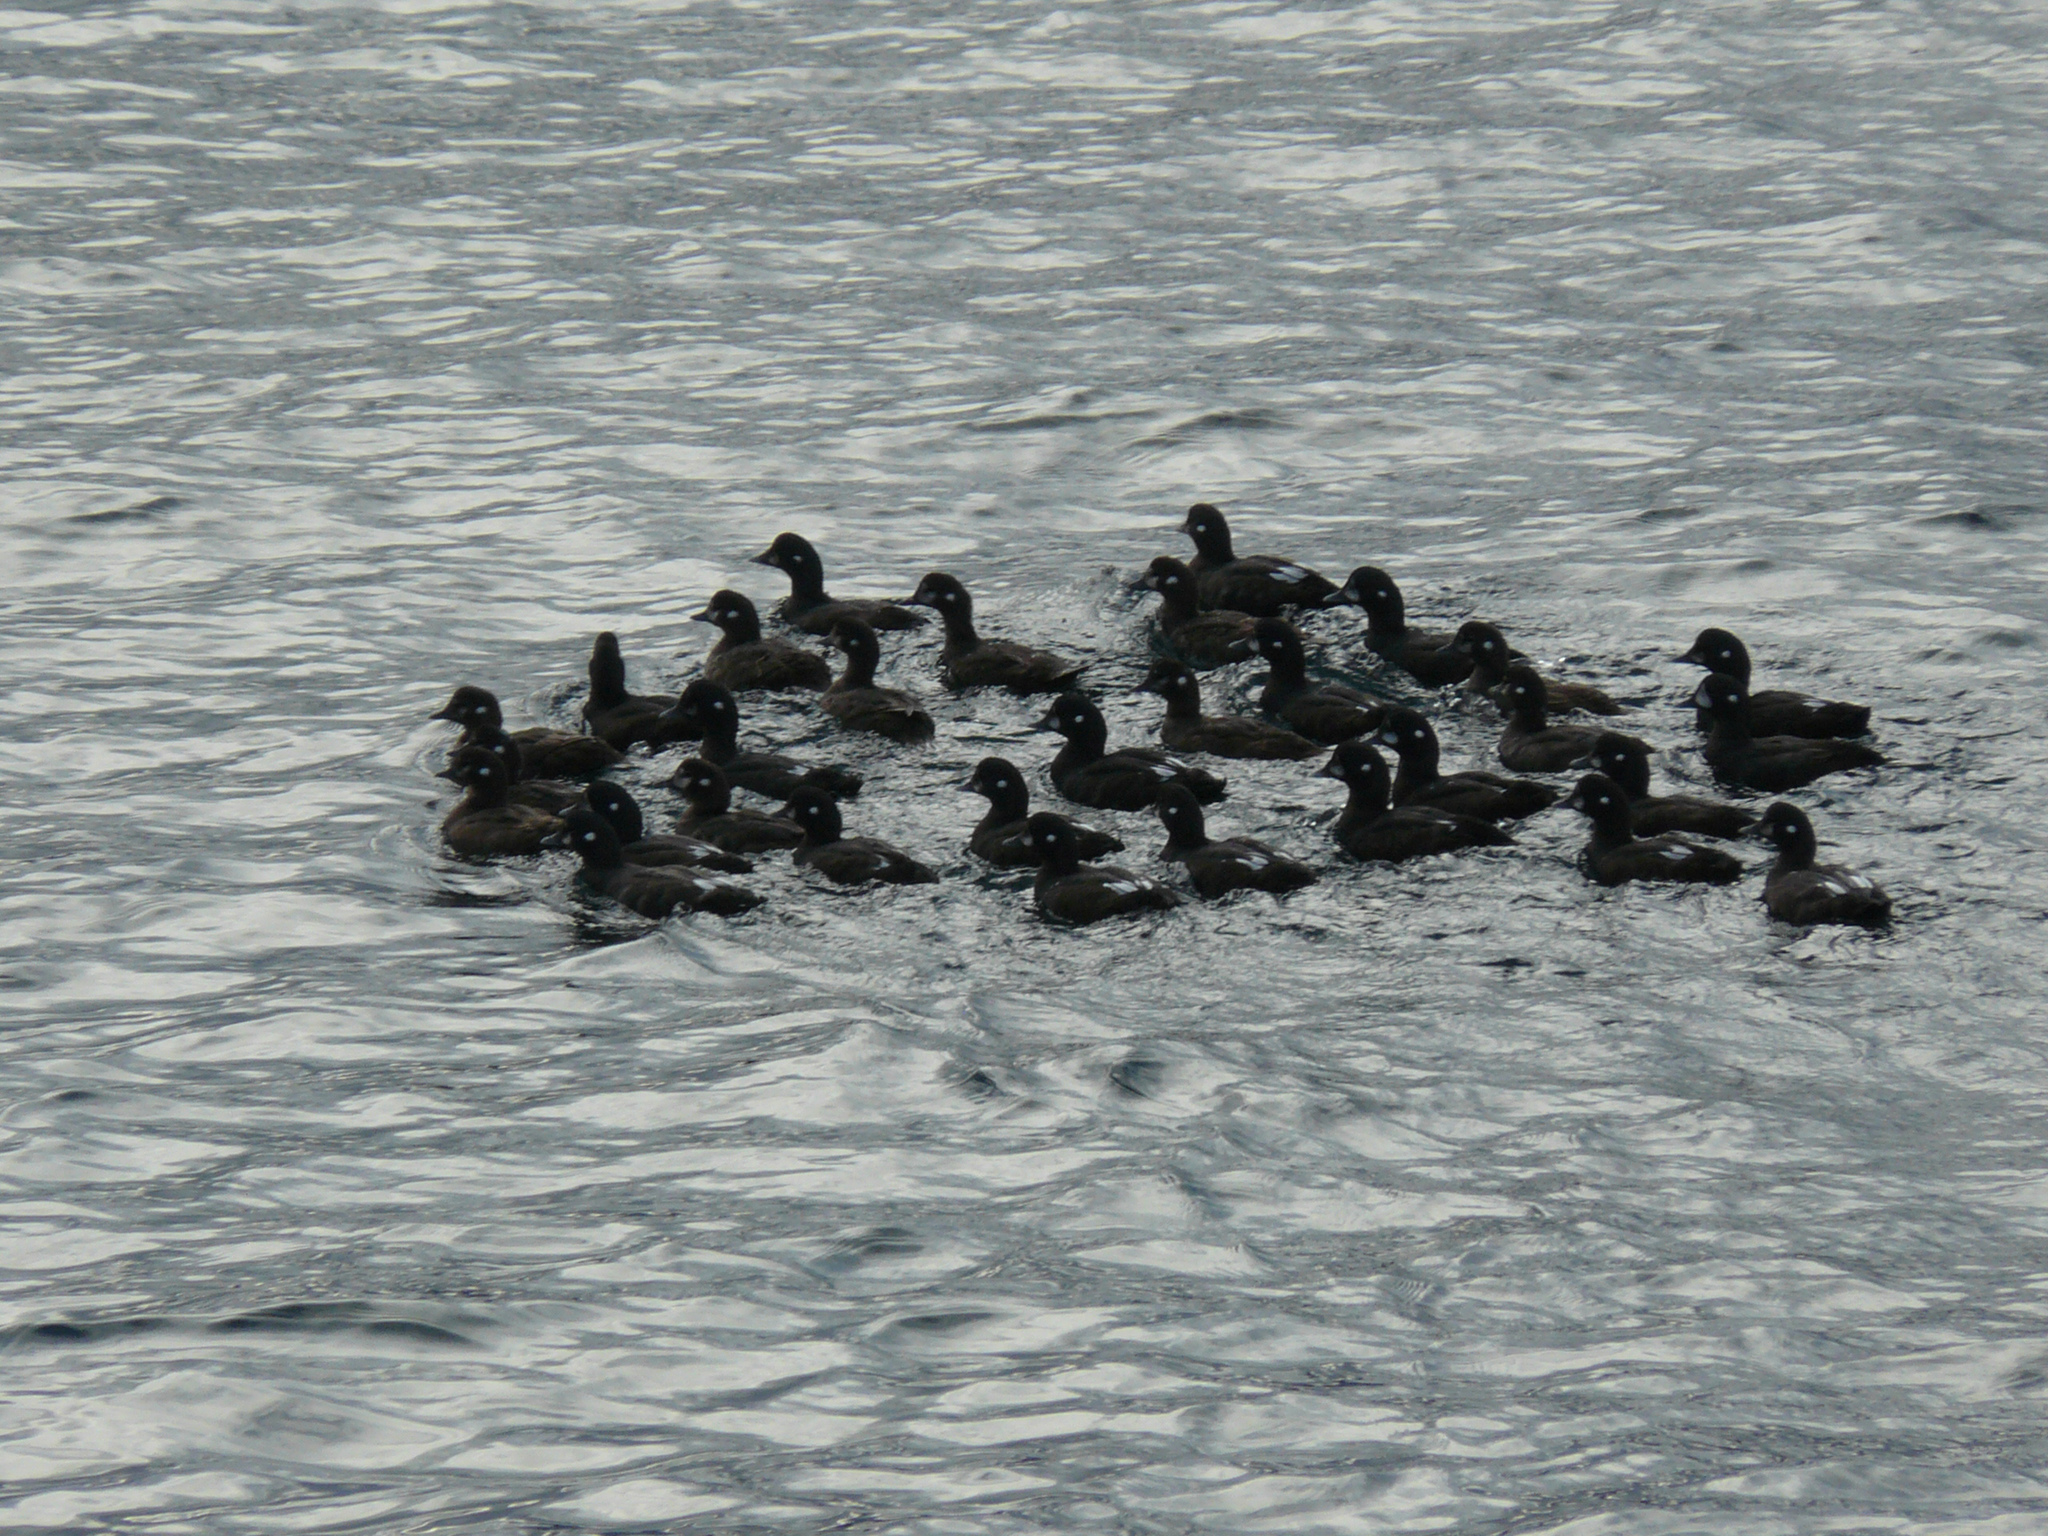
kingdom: Animalia
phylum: Chordata
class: Aves
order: Anseriformes
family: Anatidae
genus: Histrionicus
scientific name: Histrionicus histrionicus
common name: Harlequin duck
